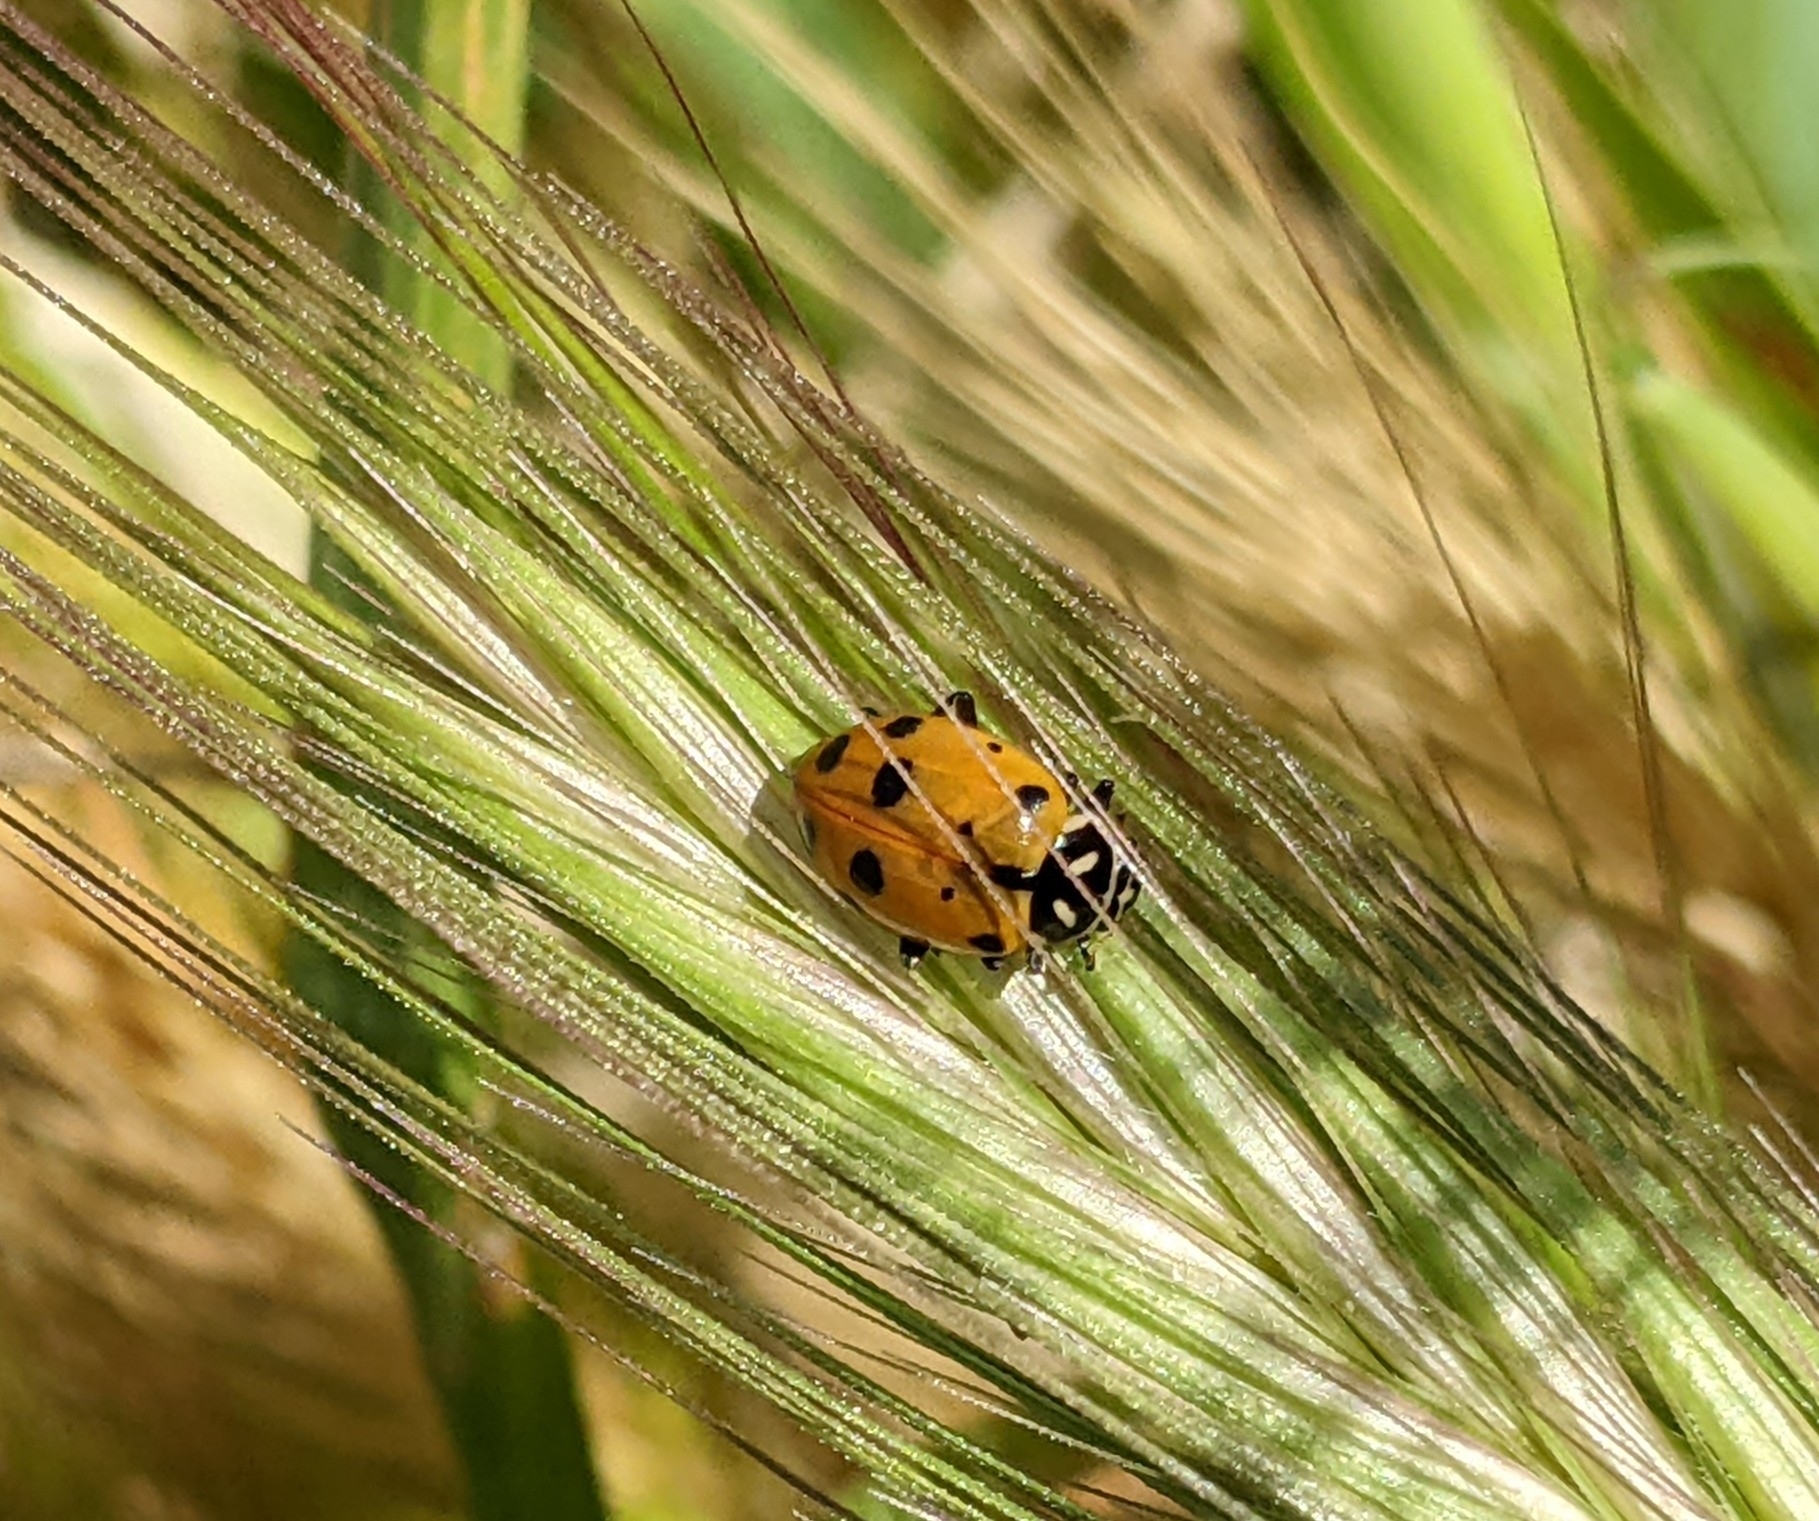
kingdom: Animalia
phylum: Arthropoda
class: Insecta
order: Coleoptera
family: Coccinellidae
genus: Hippodamia
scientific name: Hippodamia convergens
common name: Convergent lady beetle
